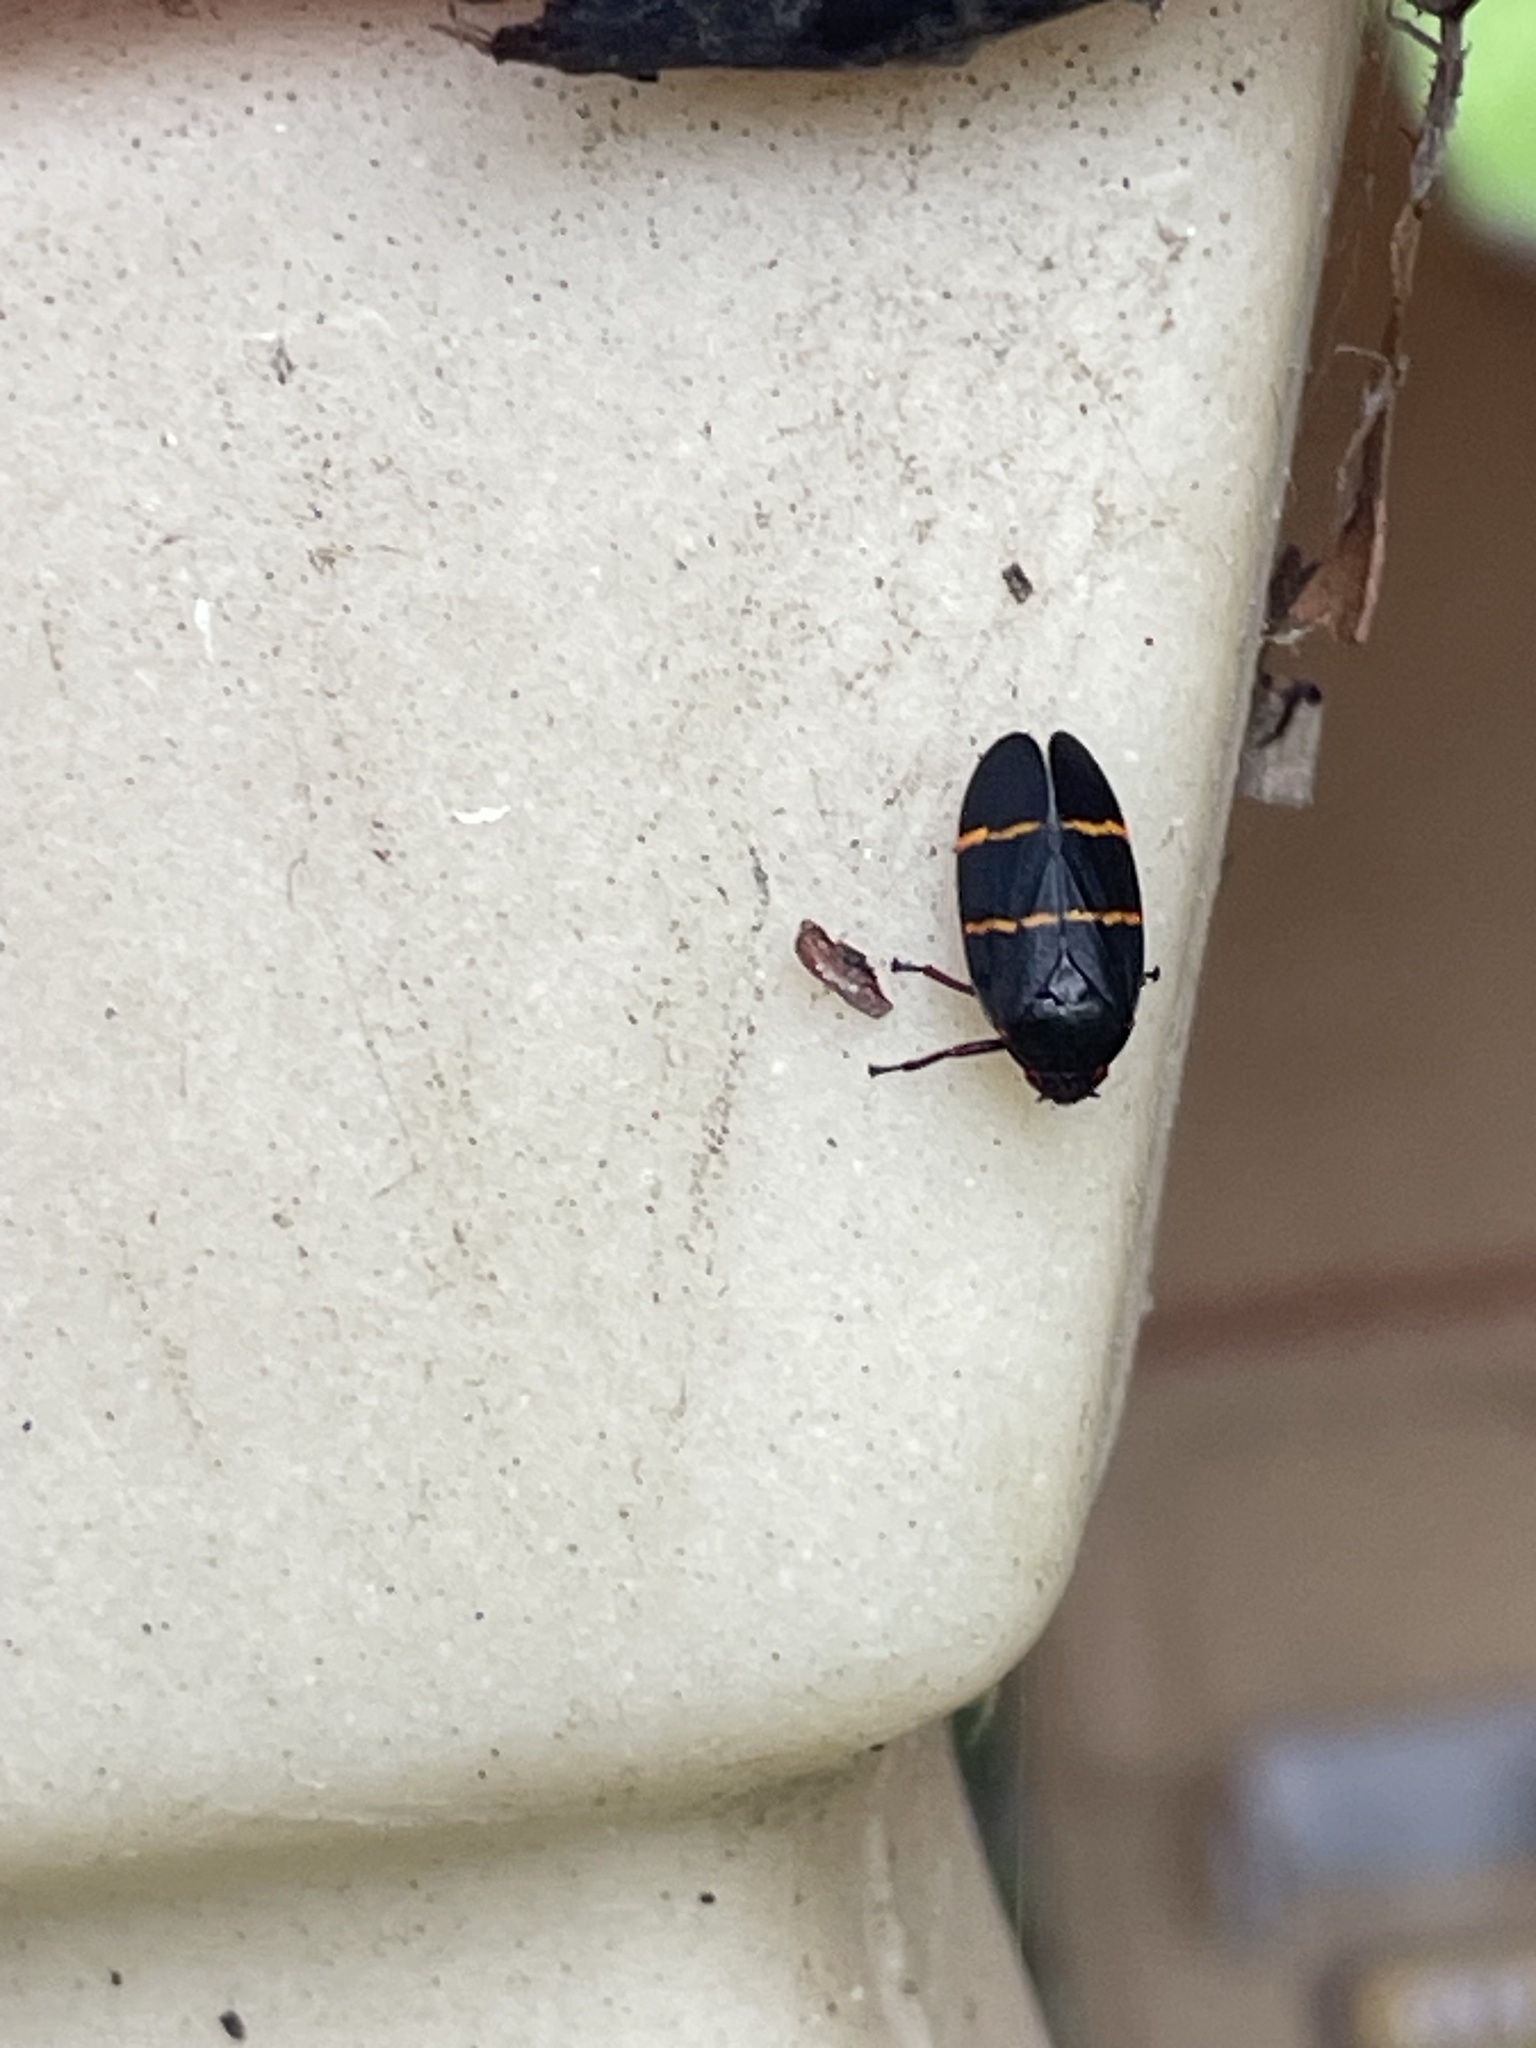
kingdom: Animalia
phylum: Arthropoda
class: Insecta
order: Hemiptera
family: Cercopidae
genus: Prosapia
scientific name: Prosapia bicincta
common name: Twolined spittlebug
